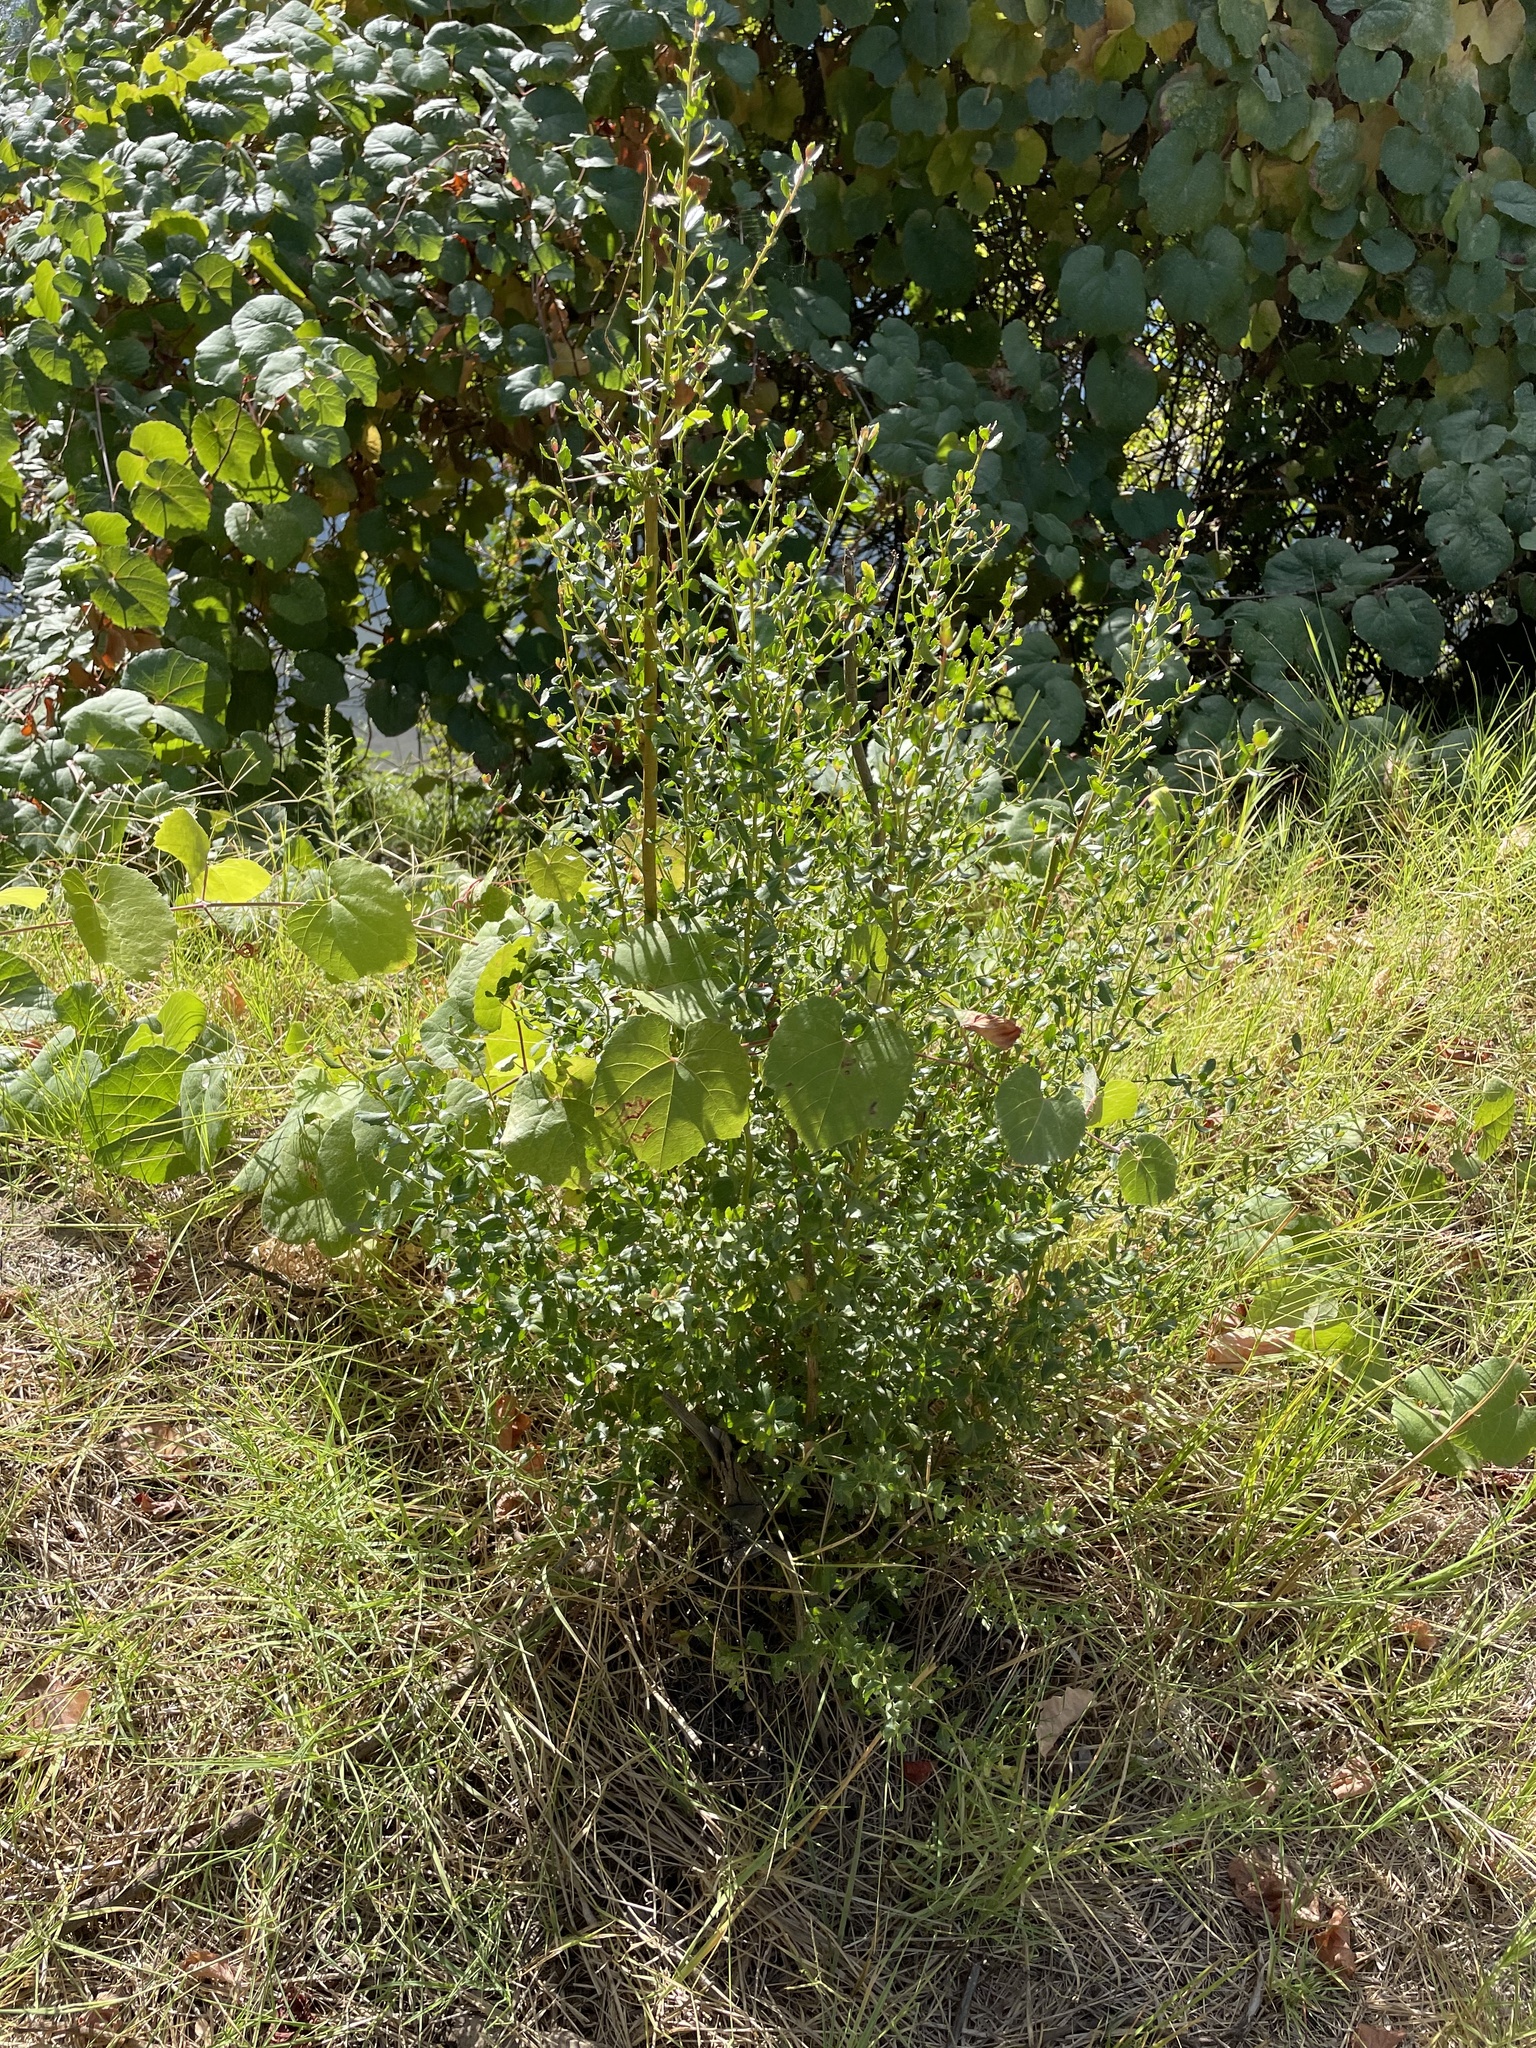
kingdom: Plantae
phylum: Tracheophyta
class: Magnoliopsida
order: Asterales
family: Asteraceae
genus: Baccharis
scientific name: Baccharis pilularis
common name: Coyotebrush
